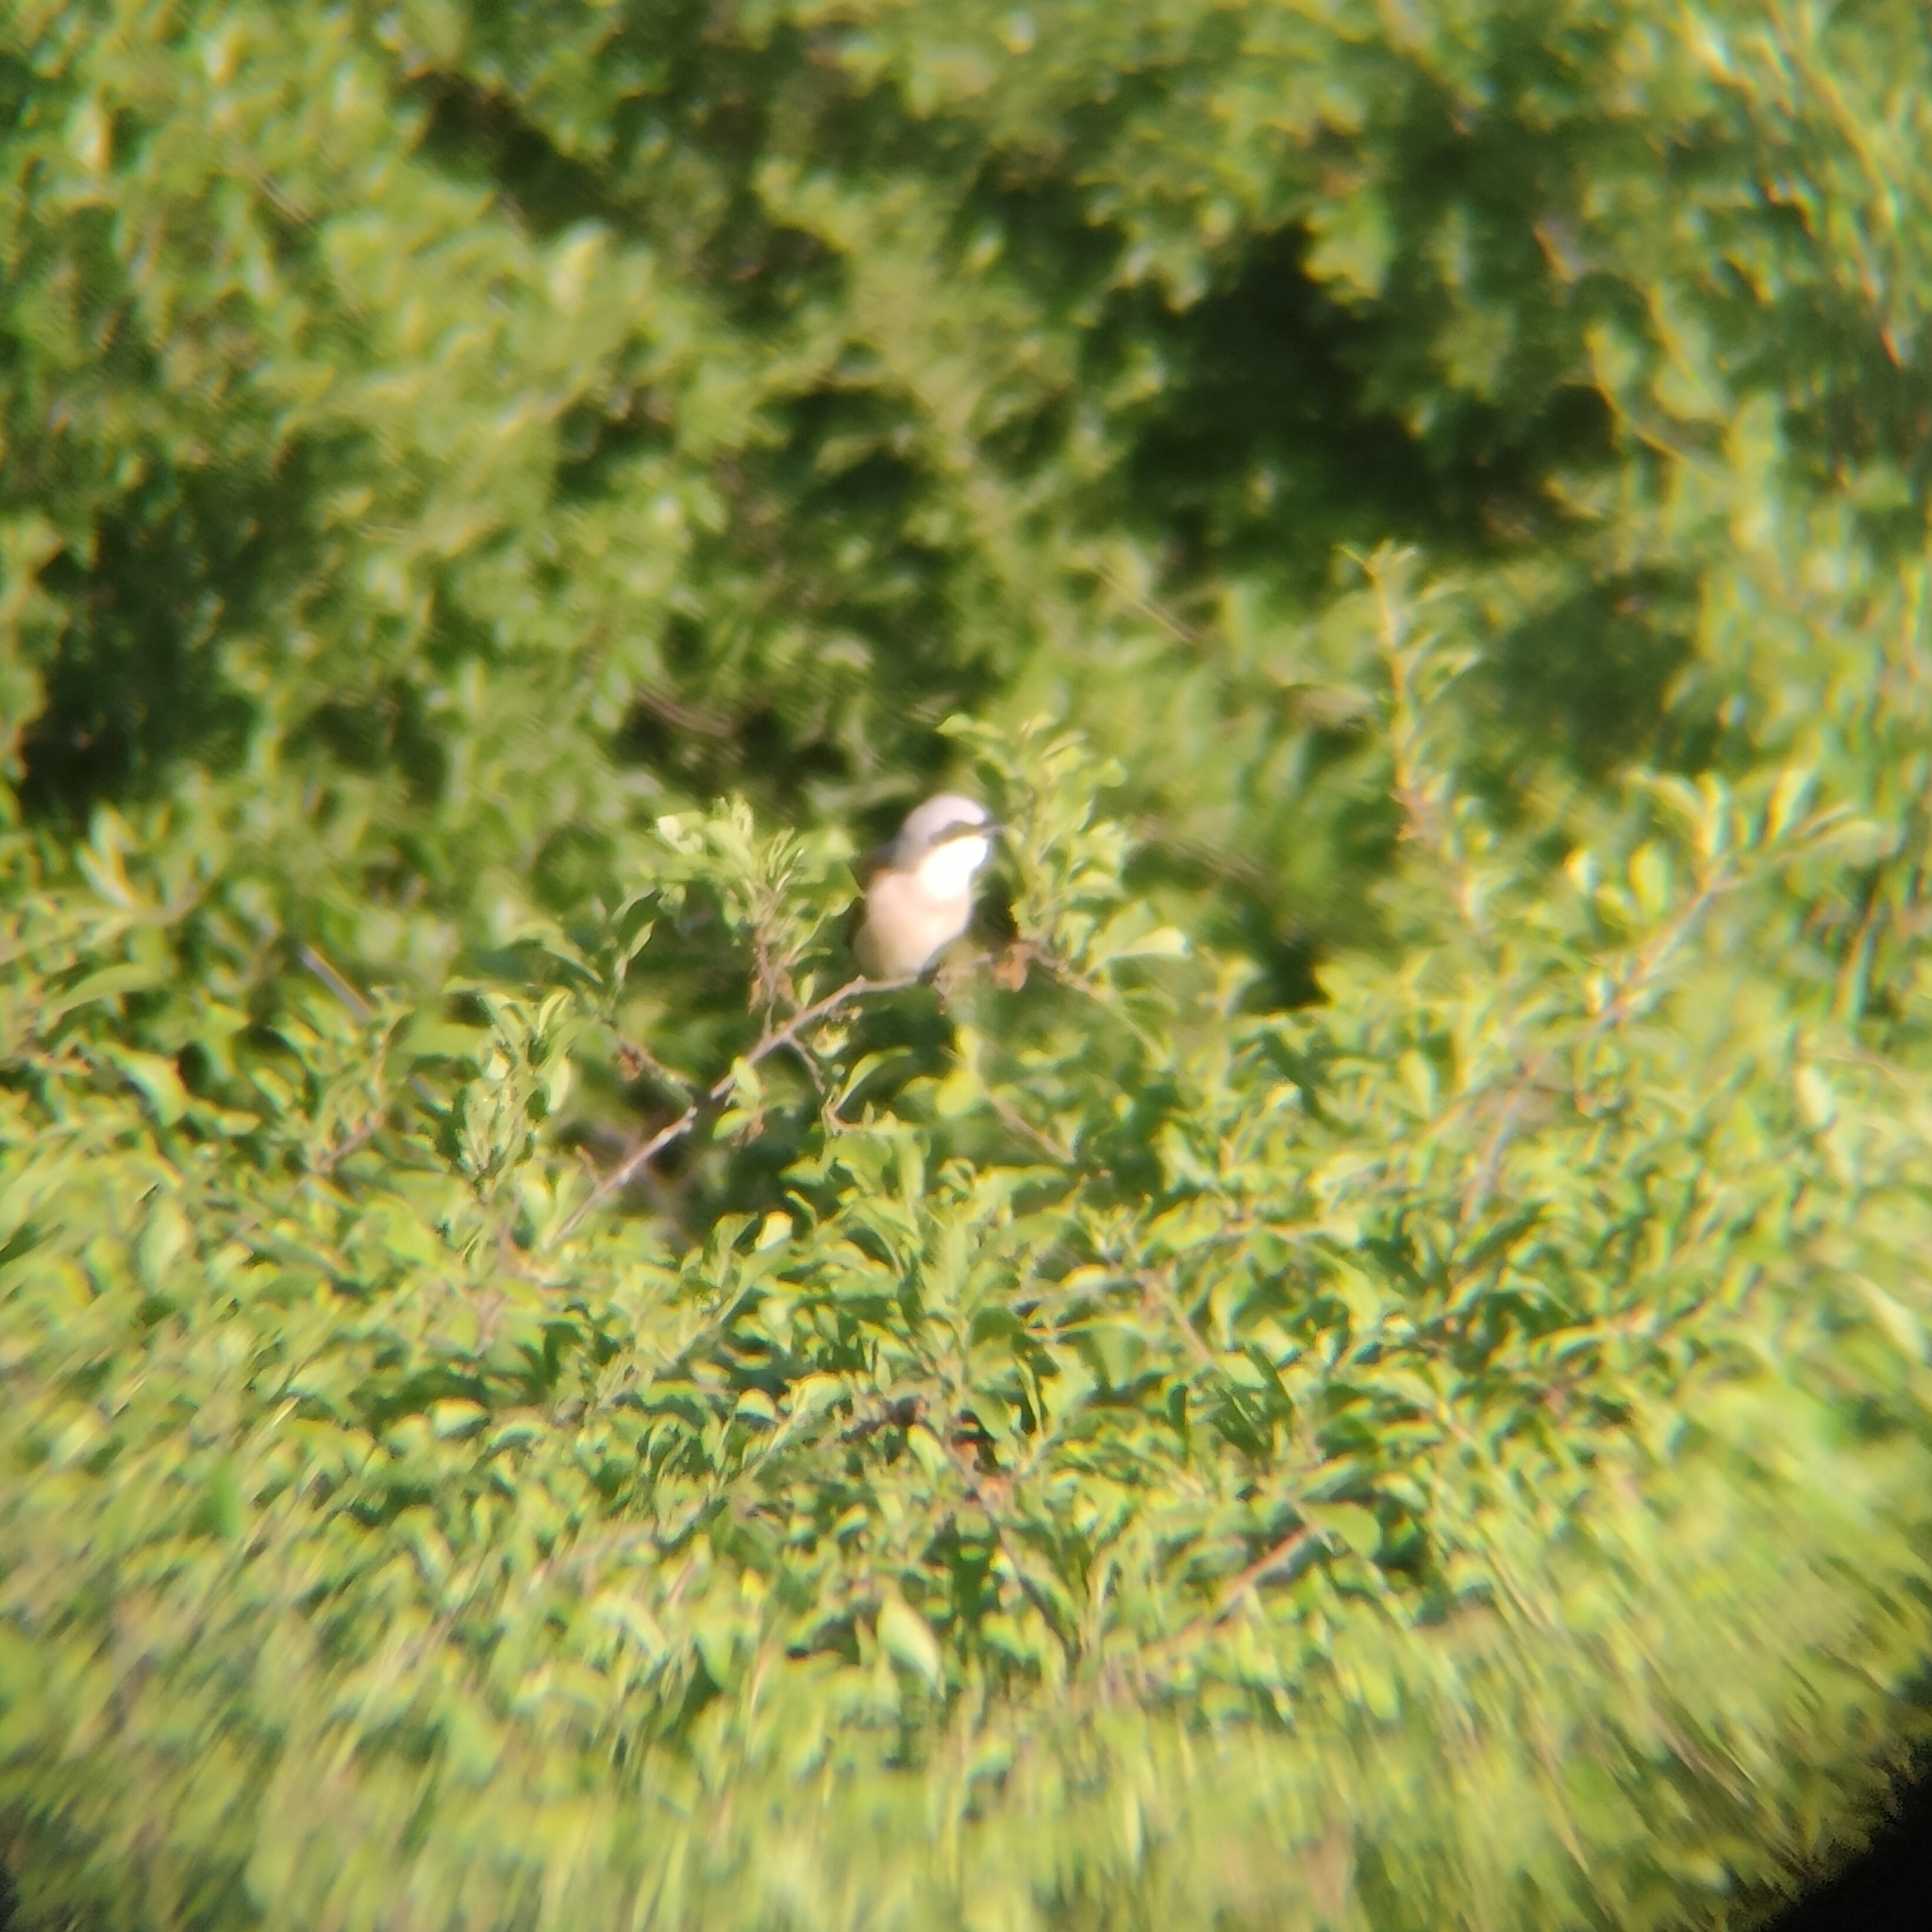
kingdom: Animalia
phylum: Chordata
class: Aves
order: Passeriformes
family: Laniidae
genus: Lanius
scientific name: Lanius collurio
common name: Red-backed shrike
